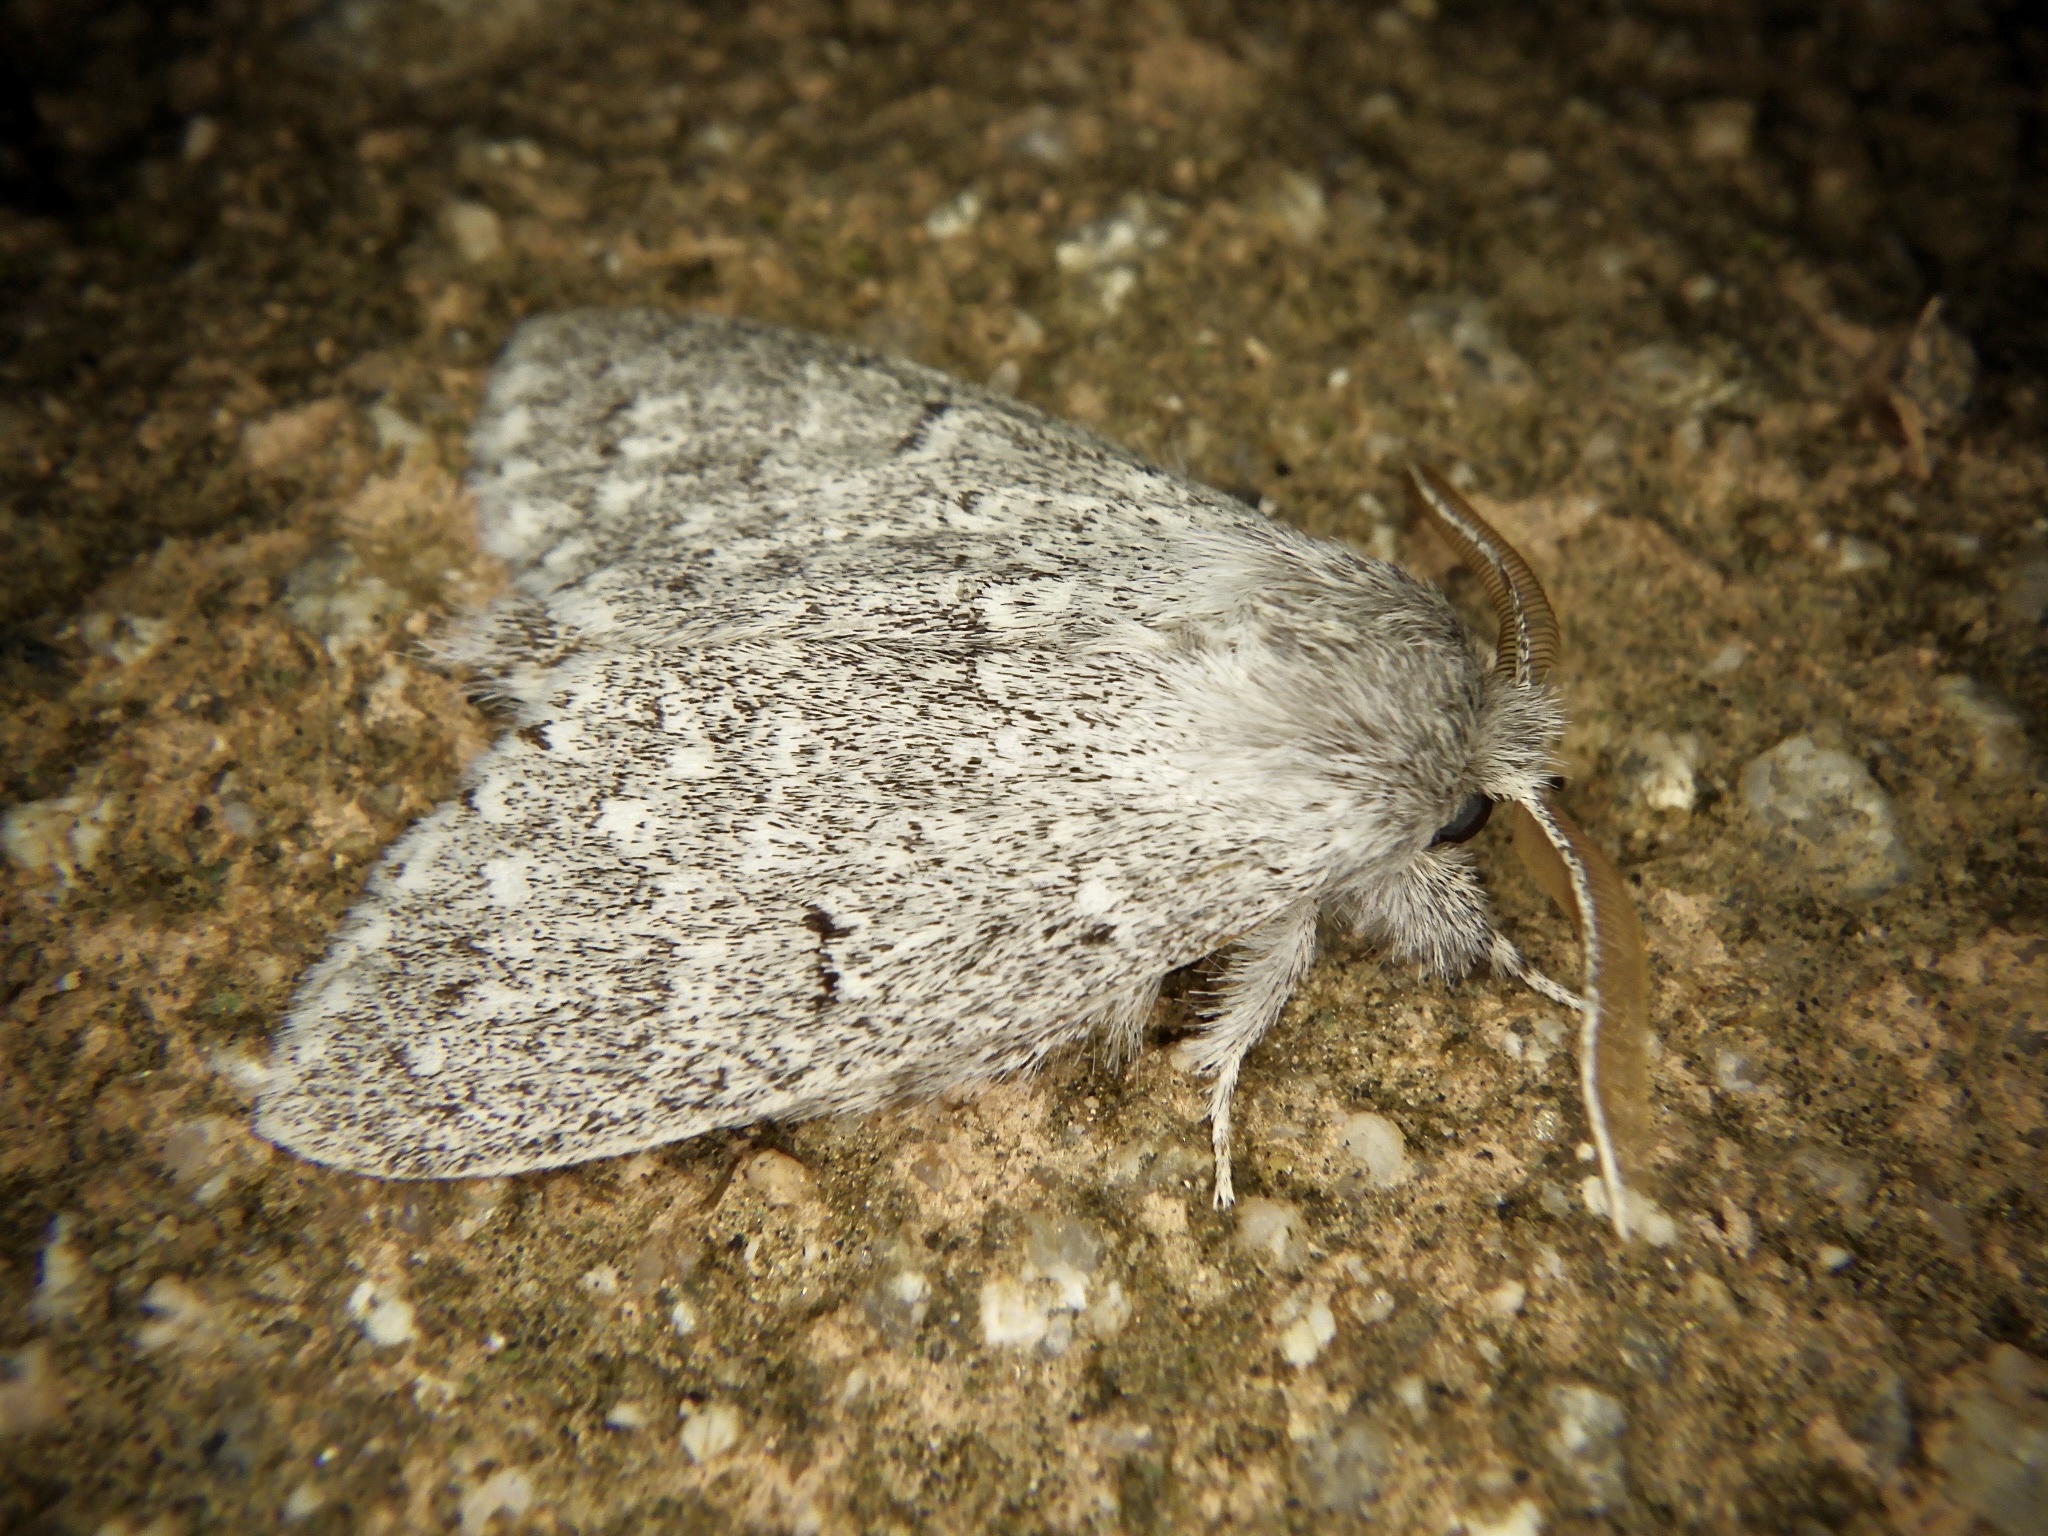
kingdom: Animalia
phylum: Arthropoda
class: Insecta
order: Lepidoptera
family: Notodontidae
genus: Cnethodonta
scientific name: Cnethodonta grisescens
